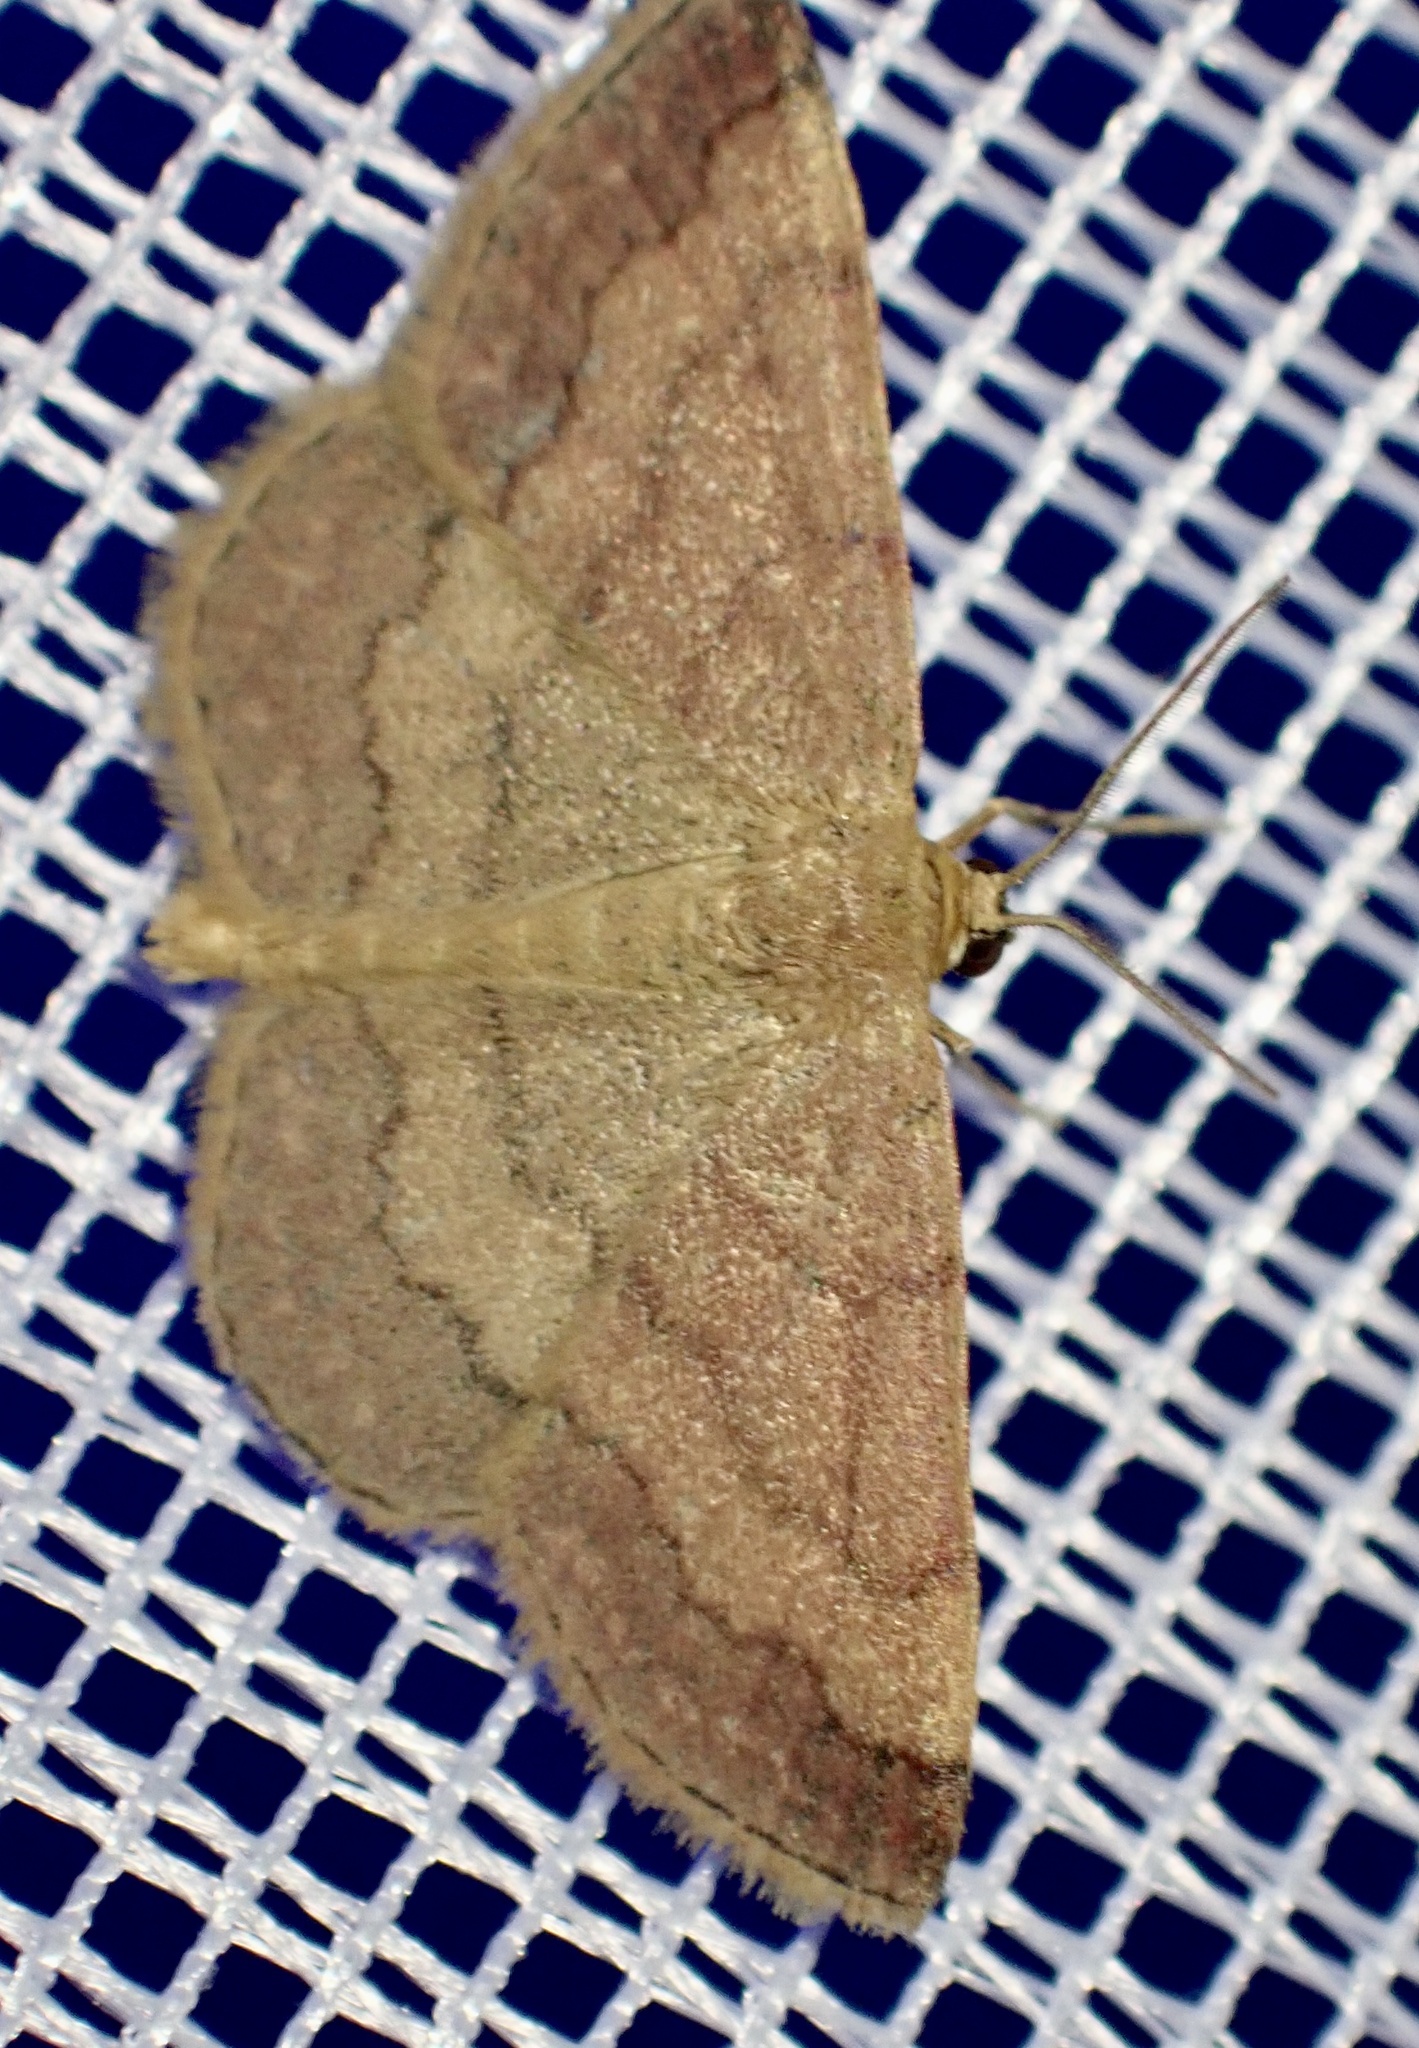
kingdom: Animalia
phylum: Arthropoda
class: Insecta
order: Lepidoptera
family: Geometridae
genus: Scopula
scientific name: Scopula rubiginata
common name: Tawny wave
